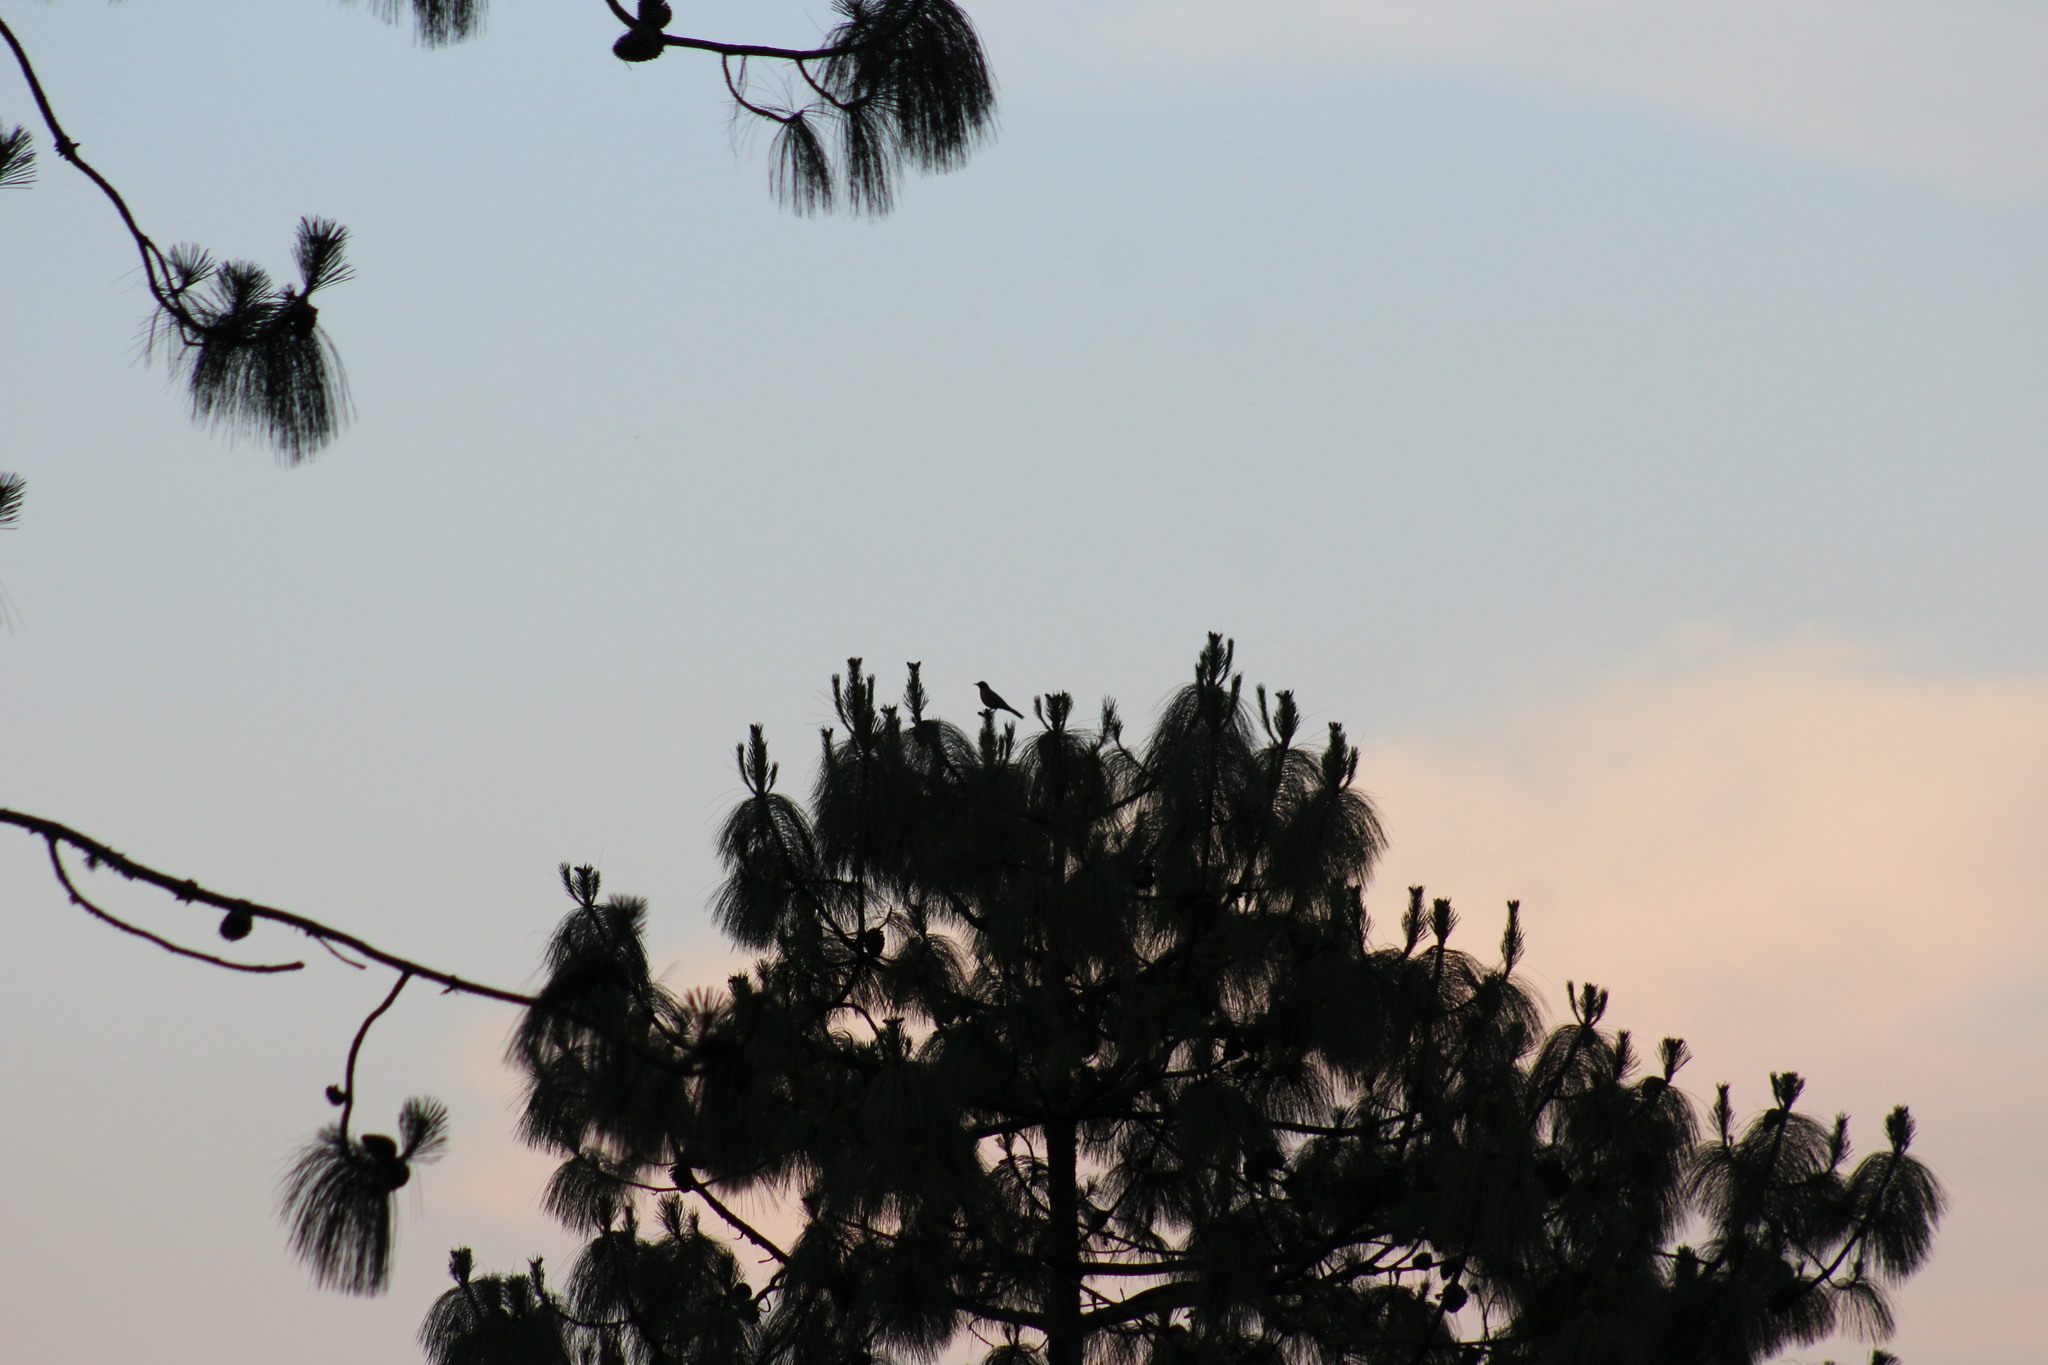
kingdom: Animalia
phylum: Chordata
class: Aves
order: Passeriformes
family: Turdidae
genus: Turdus
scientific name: Turdus migratorius
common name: American robin
